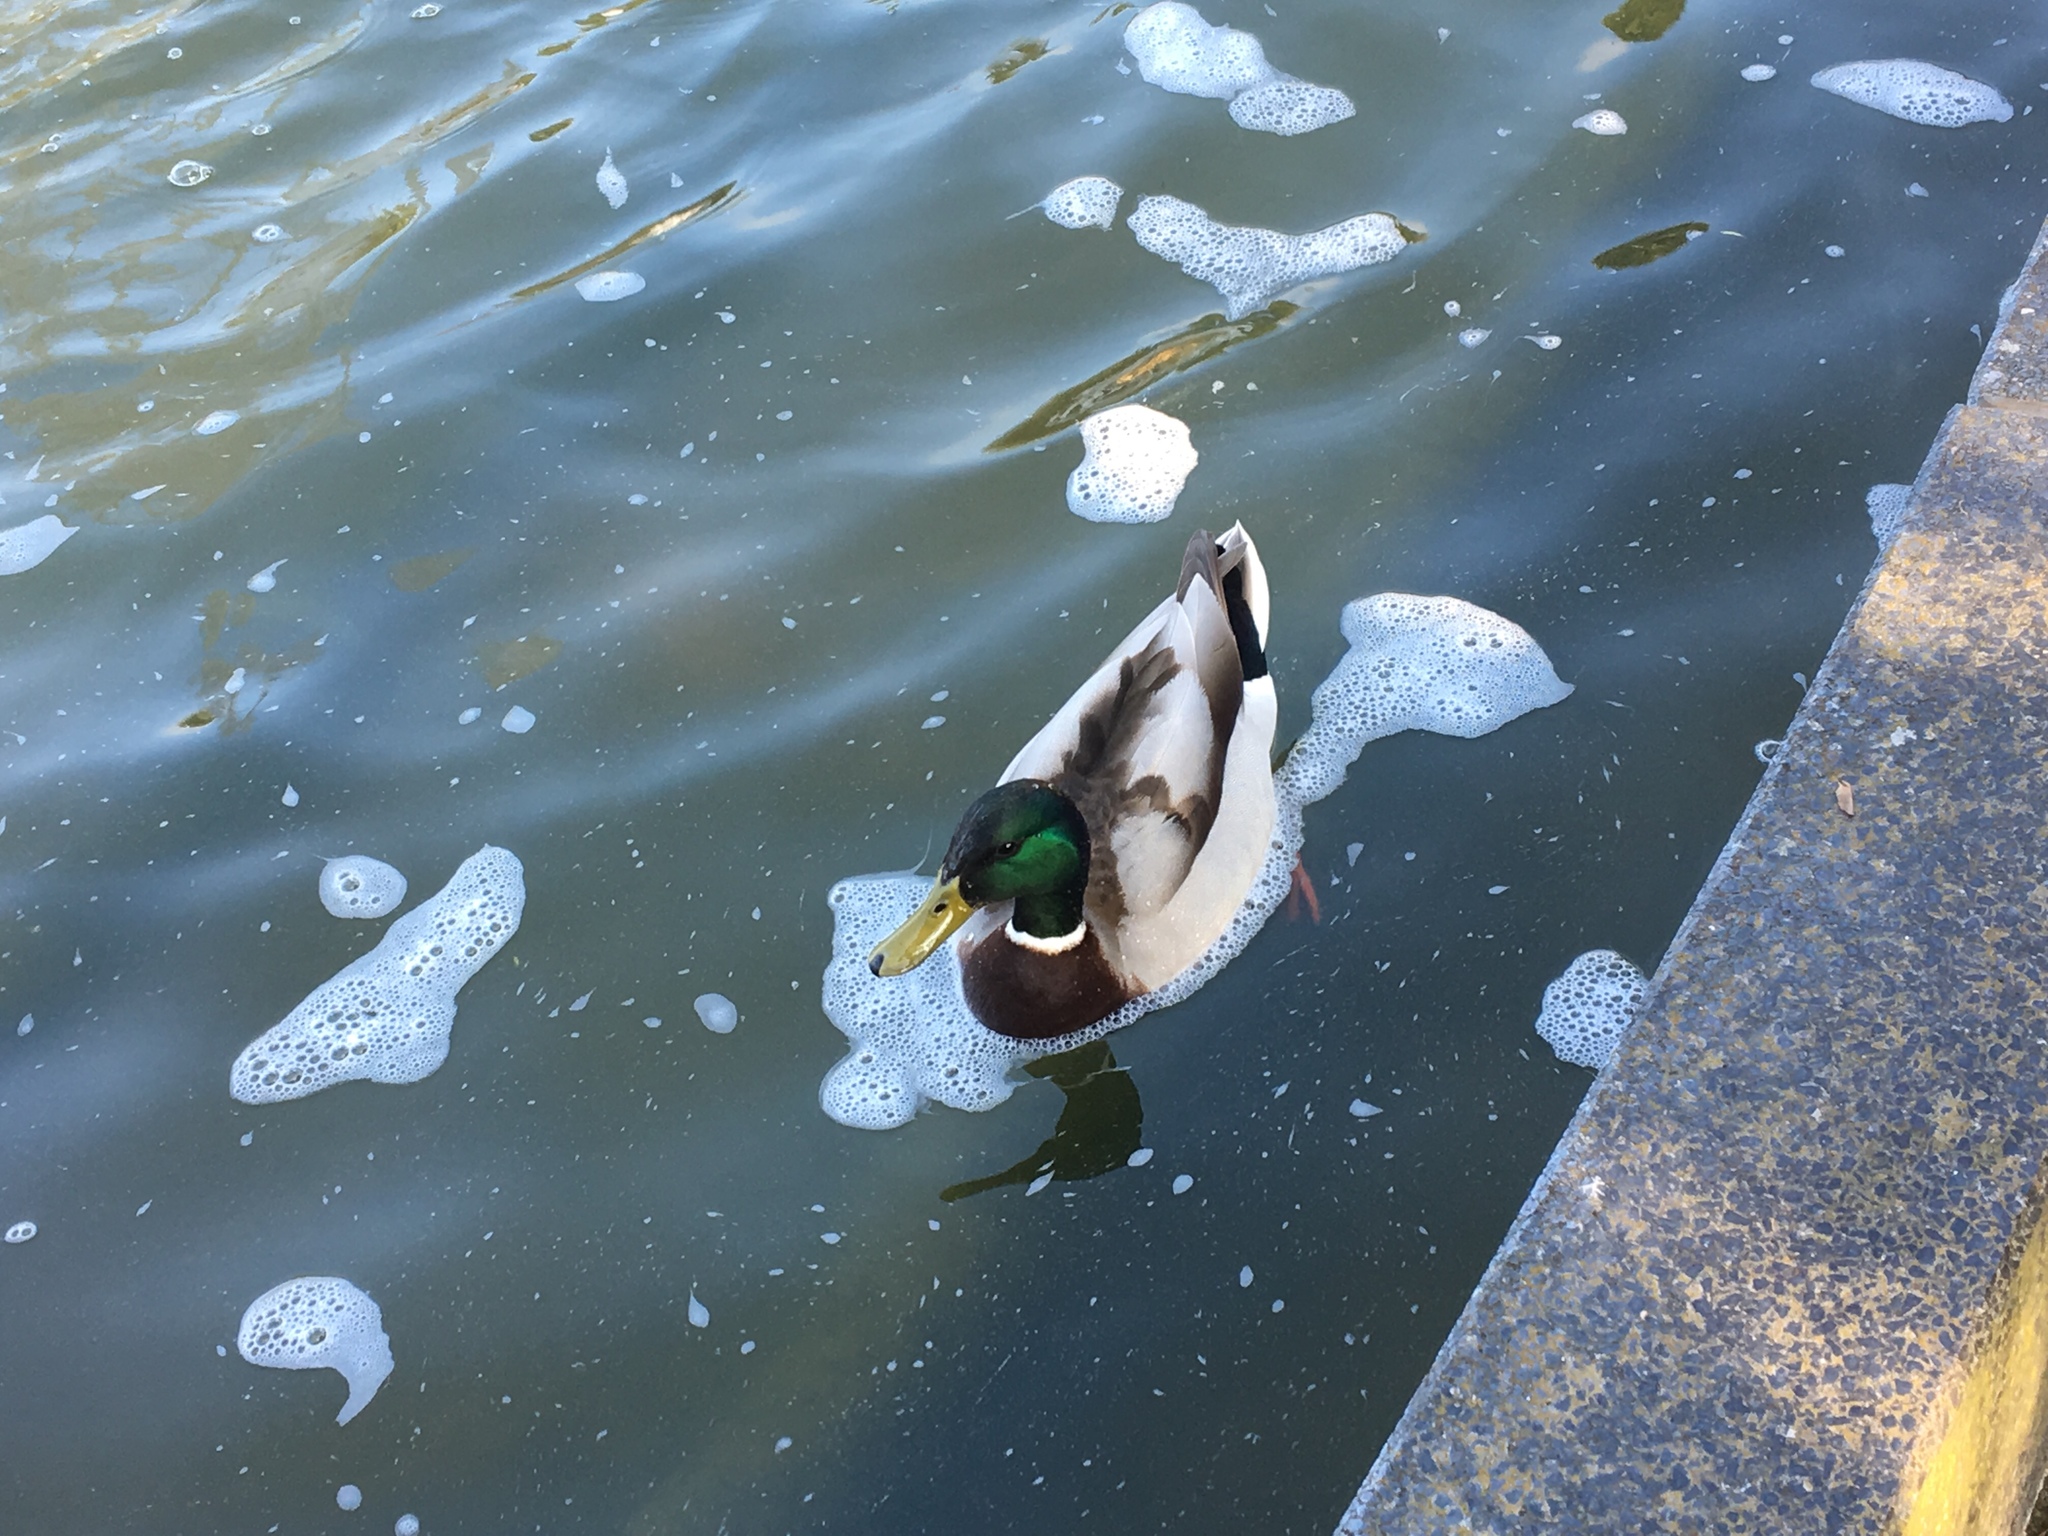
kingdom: Animalia
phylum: Chordata
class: Aves
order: Anseriformes
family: Anatidae
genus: Anas
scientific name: Anas platyrhynchos
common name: Mallard
